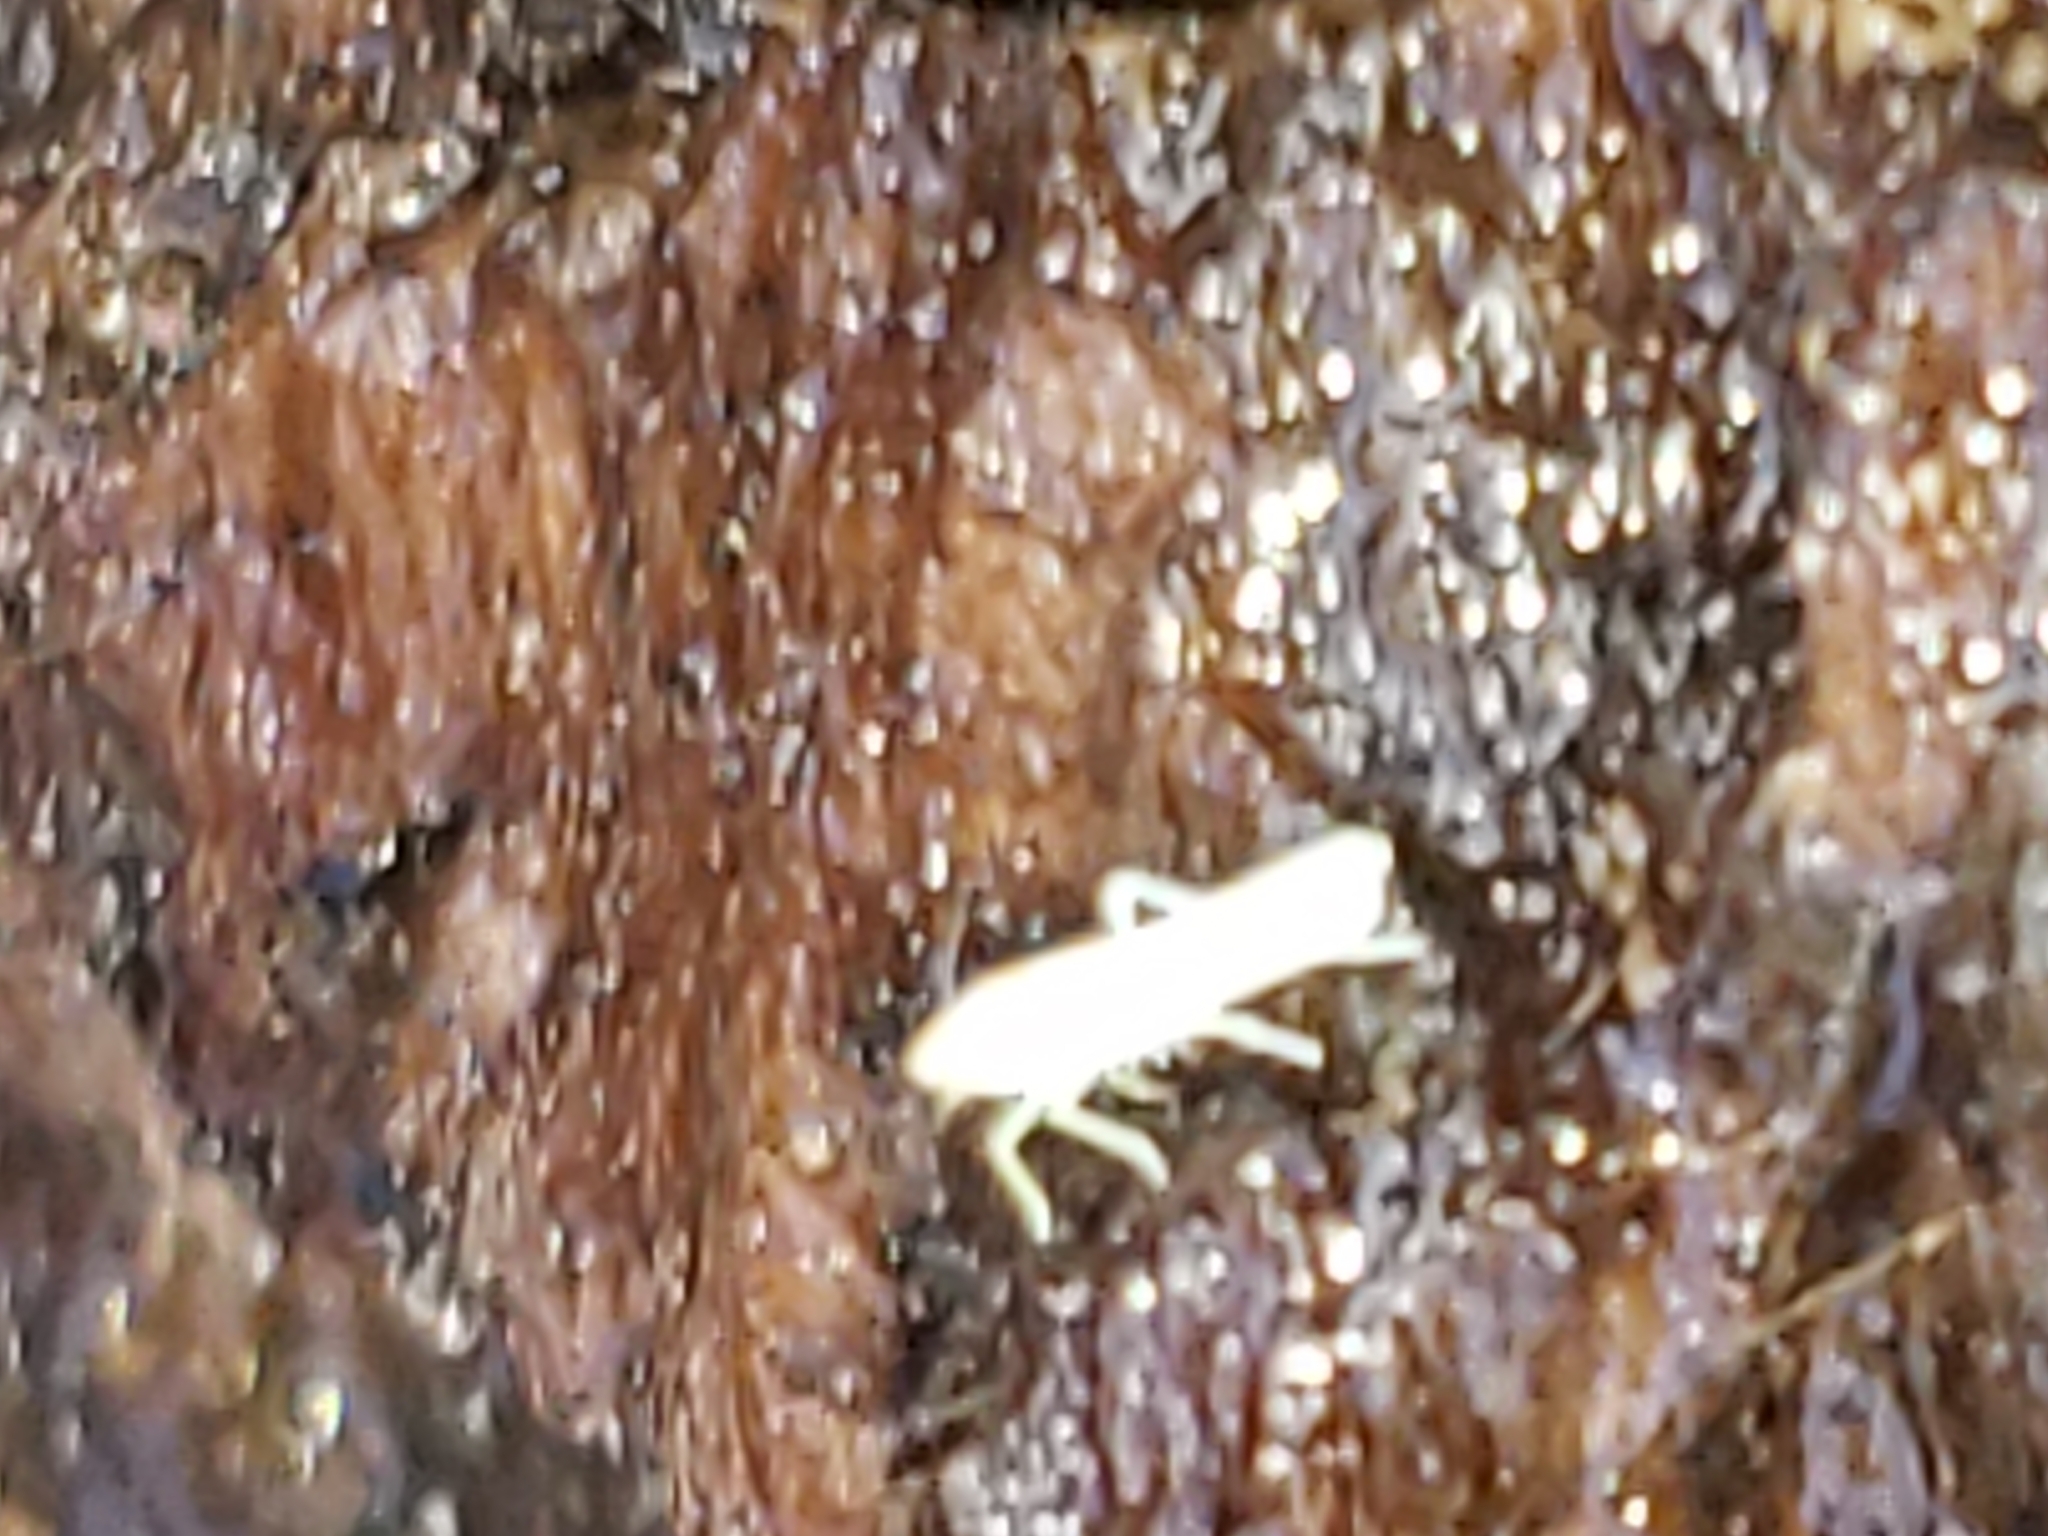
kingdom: Animalia
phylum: Arthropoda
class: Insecta
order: Hemiptera
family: Cicadellidae
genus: Dikrella
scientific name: Dikrella cruentata
